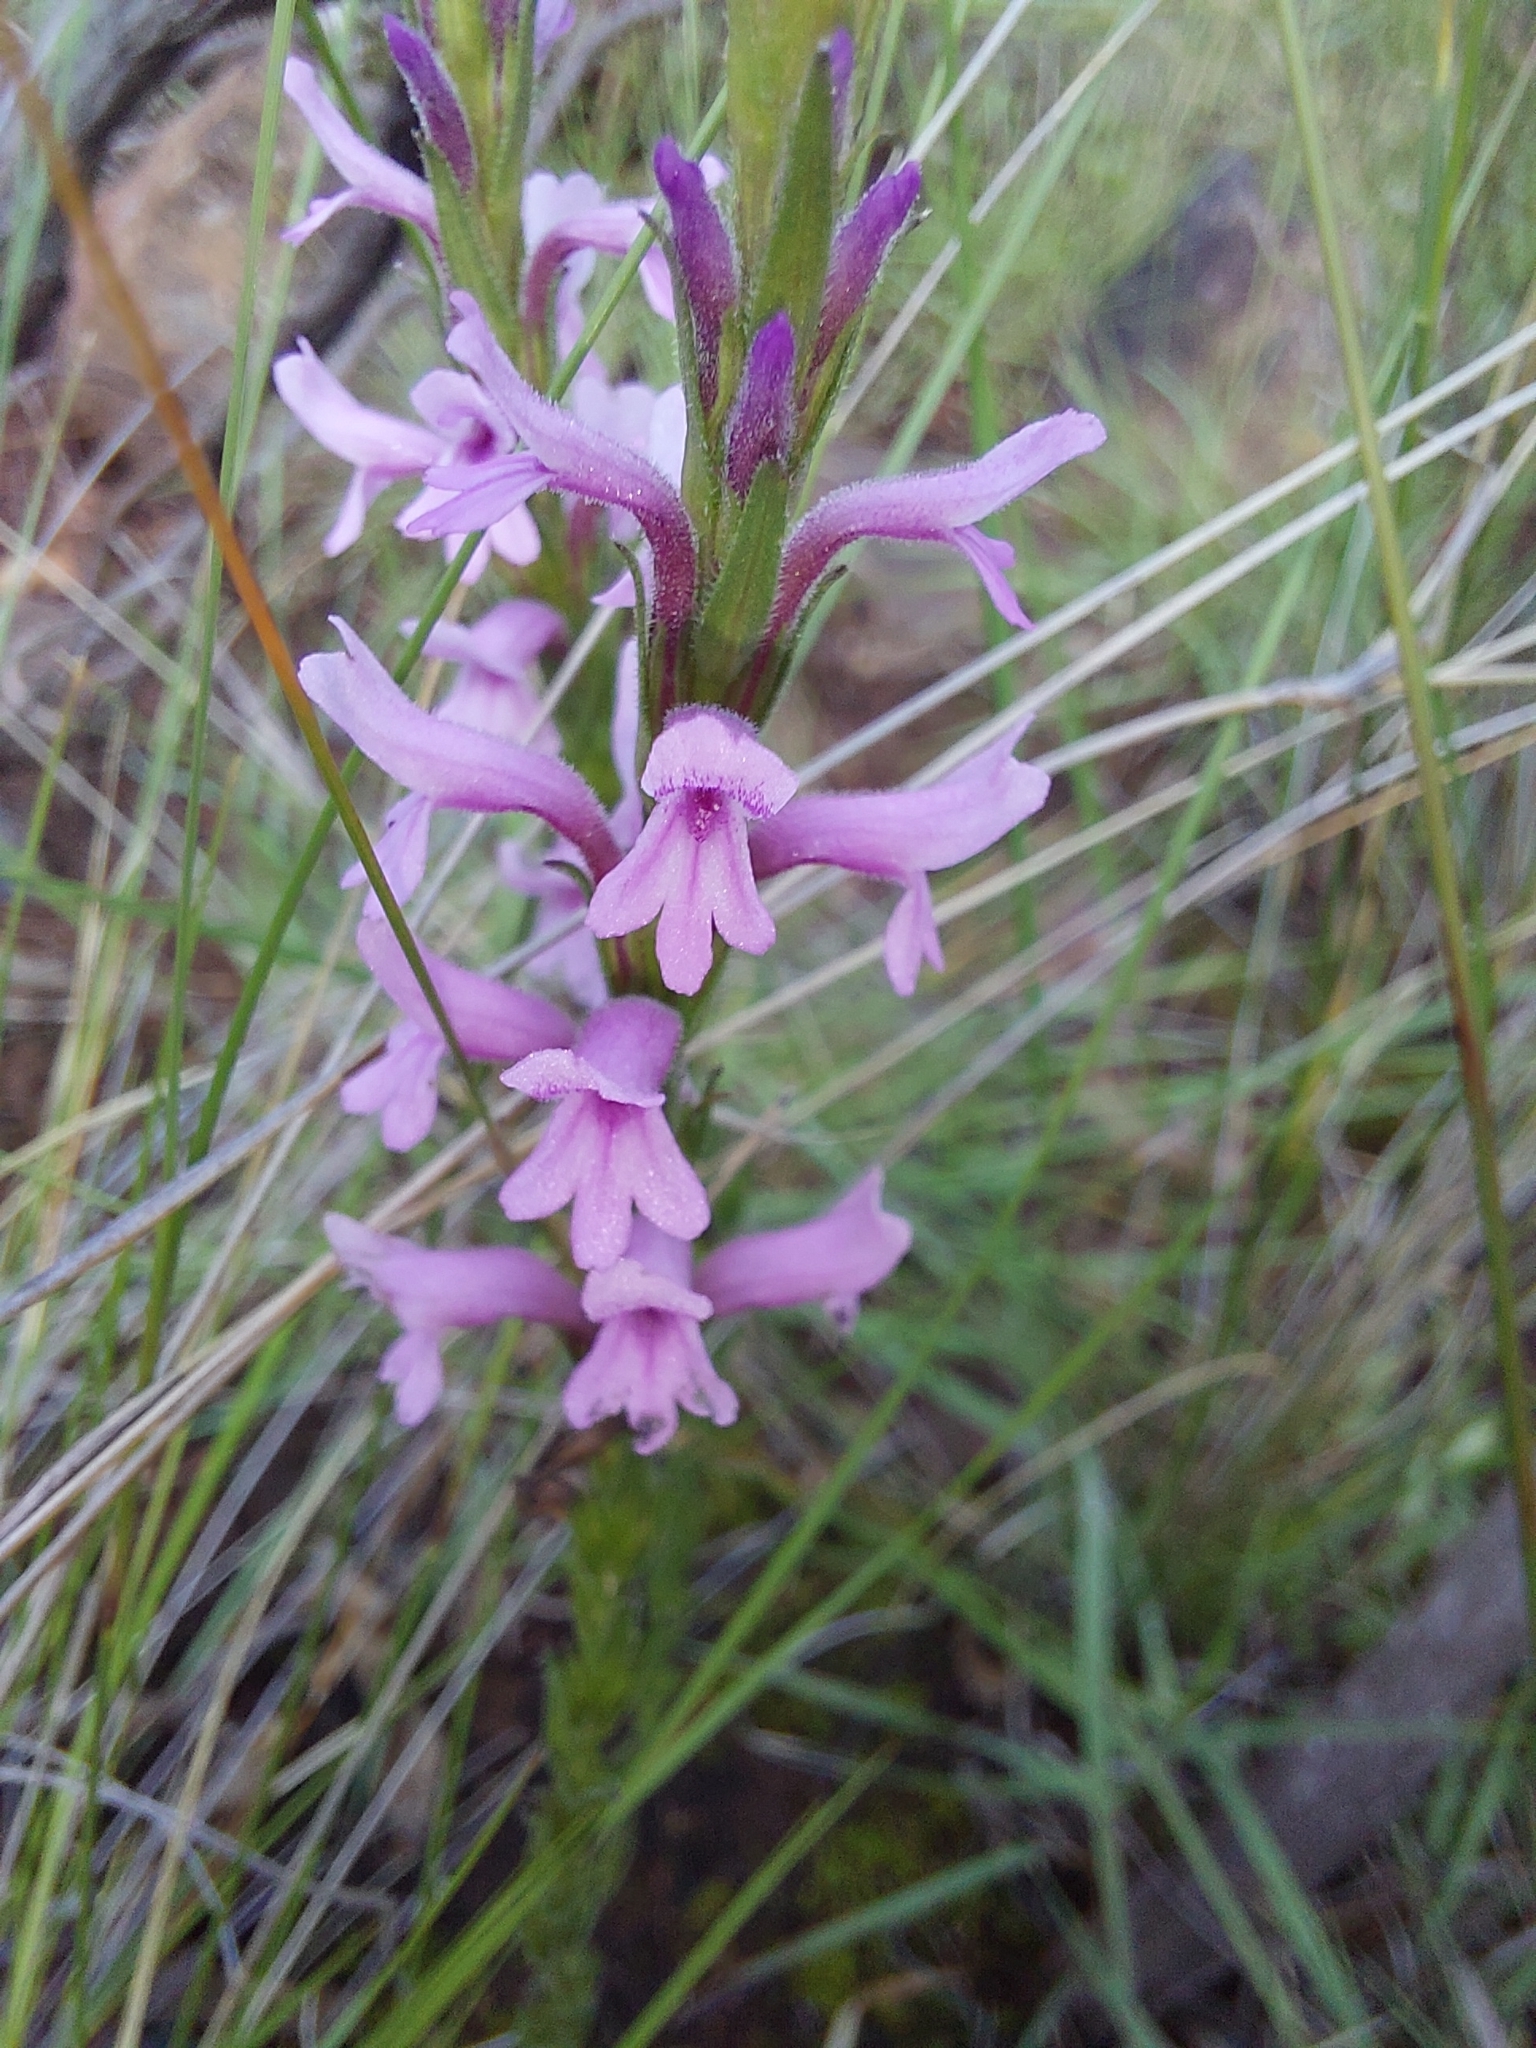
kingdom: Plantae
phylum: Tracheophyta
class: Magnoliopsida
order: Lamiales
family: Orobanchaceae
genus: Striga
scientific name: Striga bilabiata
